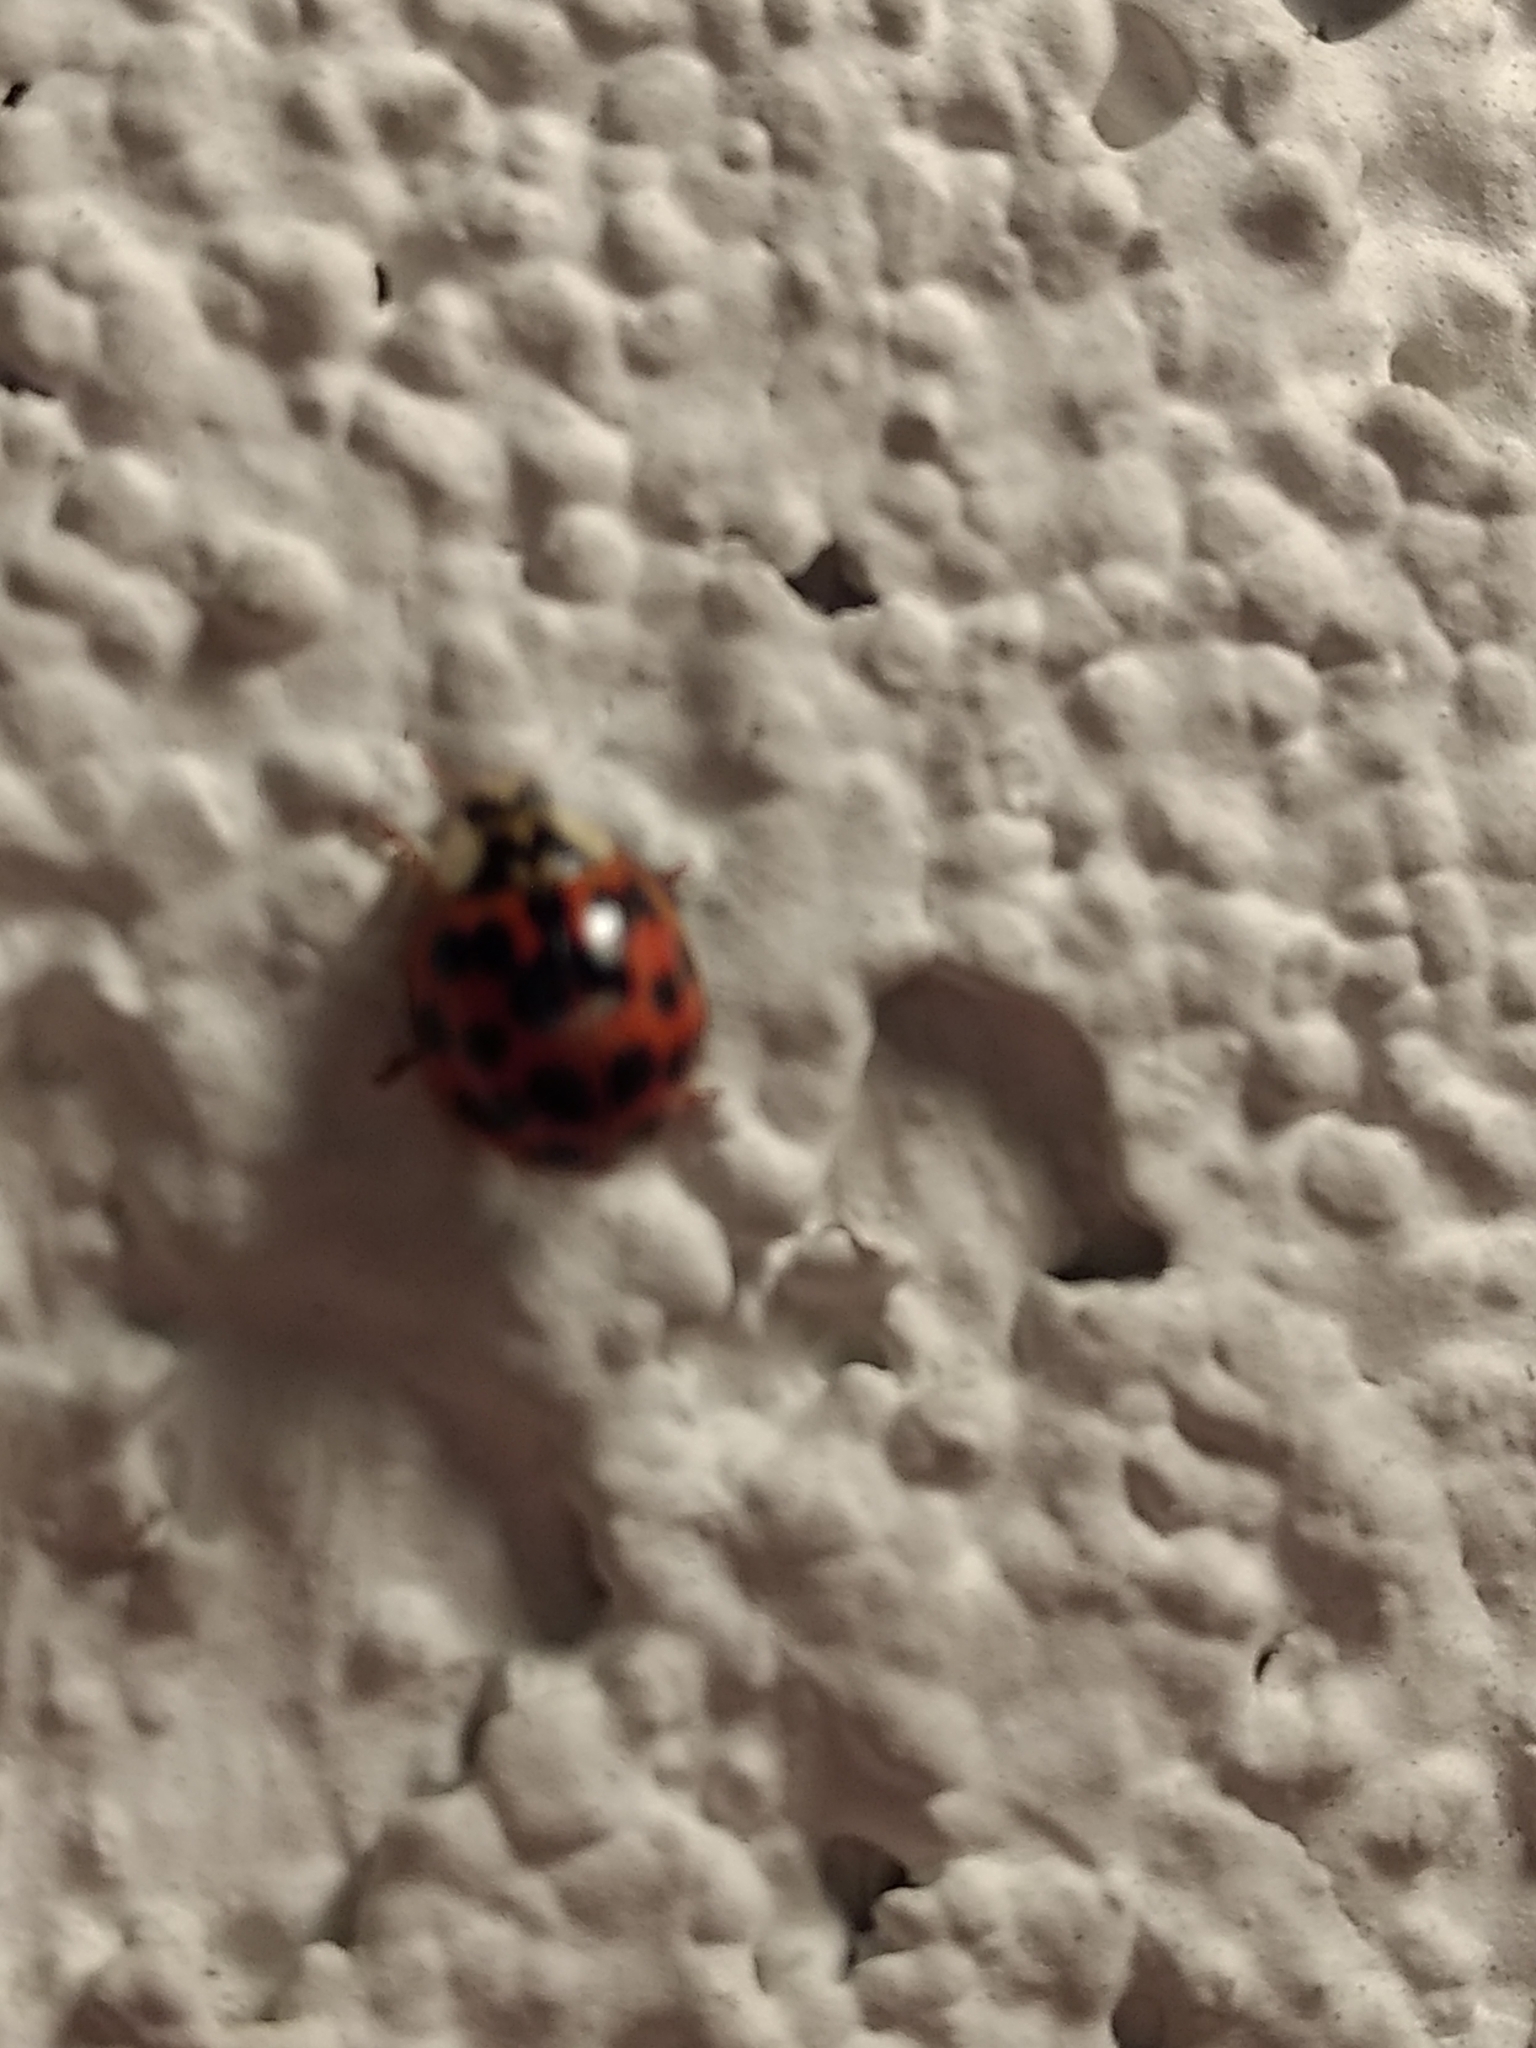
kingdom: Animalia
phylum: Arthropoda
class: Insecta
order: Coleoptera
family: Coccinellidae
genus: Harmonia
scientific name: Harmonia axyridis
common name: Harlequin ladybird
